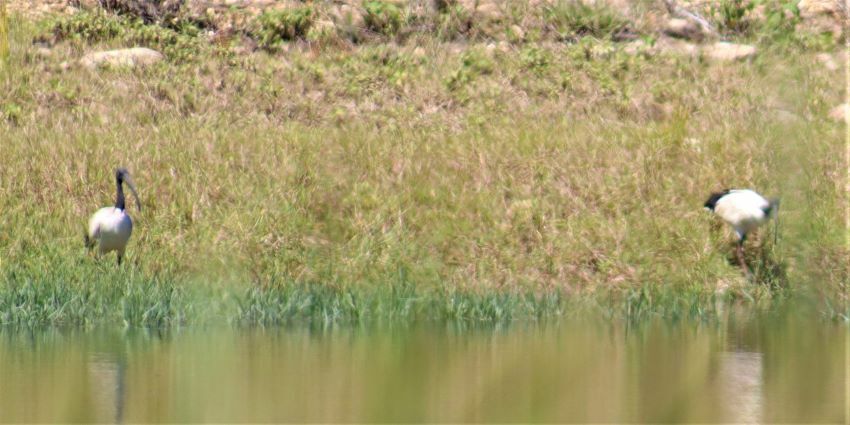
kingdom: Animalia
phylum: Chordata
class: Aves
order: Pelecaniformes
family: Threskiornithidae
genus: Threskiornis
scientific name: Threskiornis aethiopicus
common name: Sacred ibis
